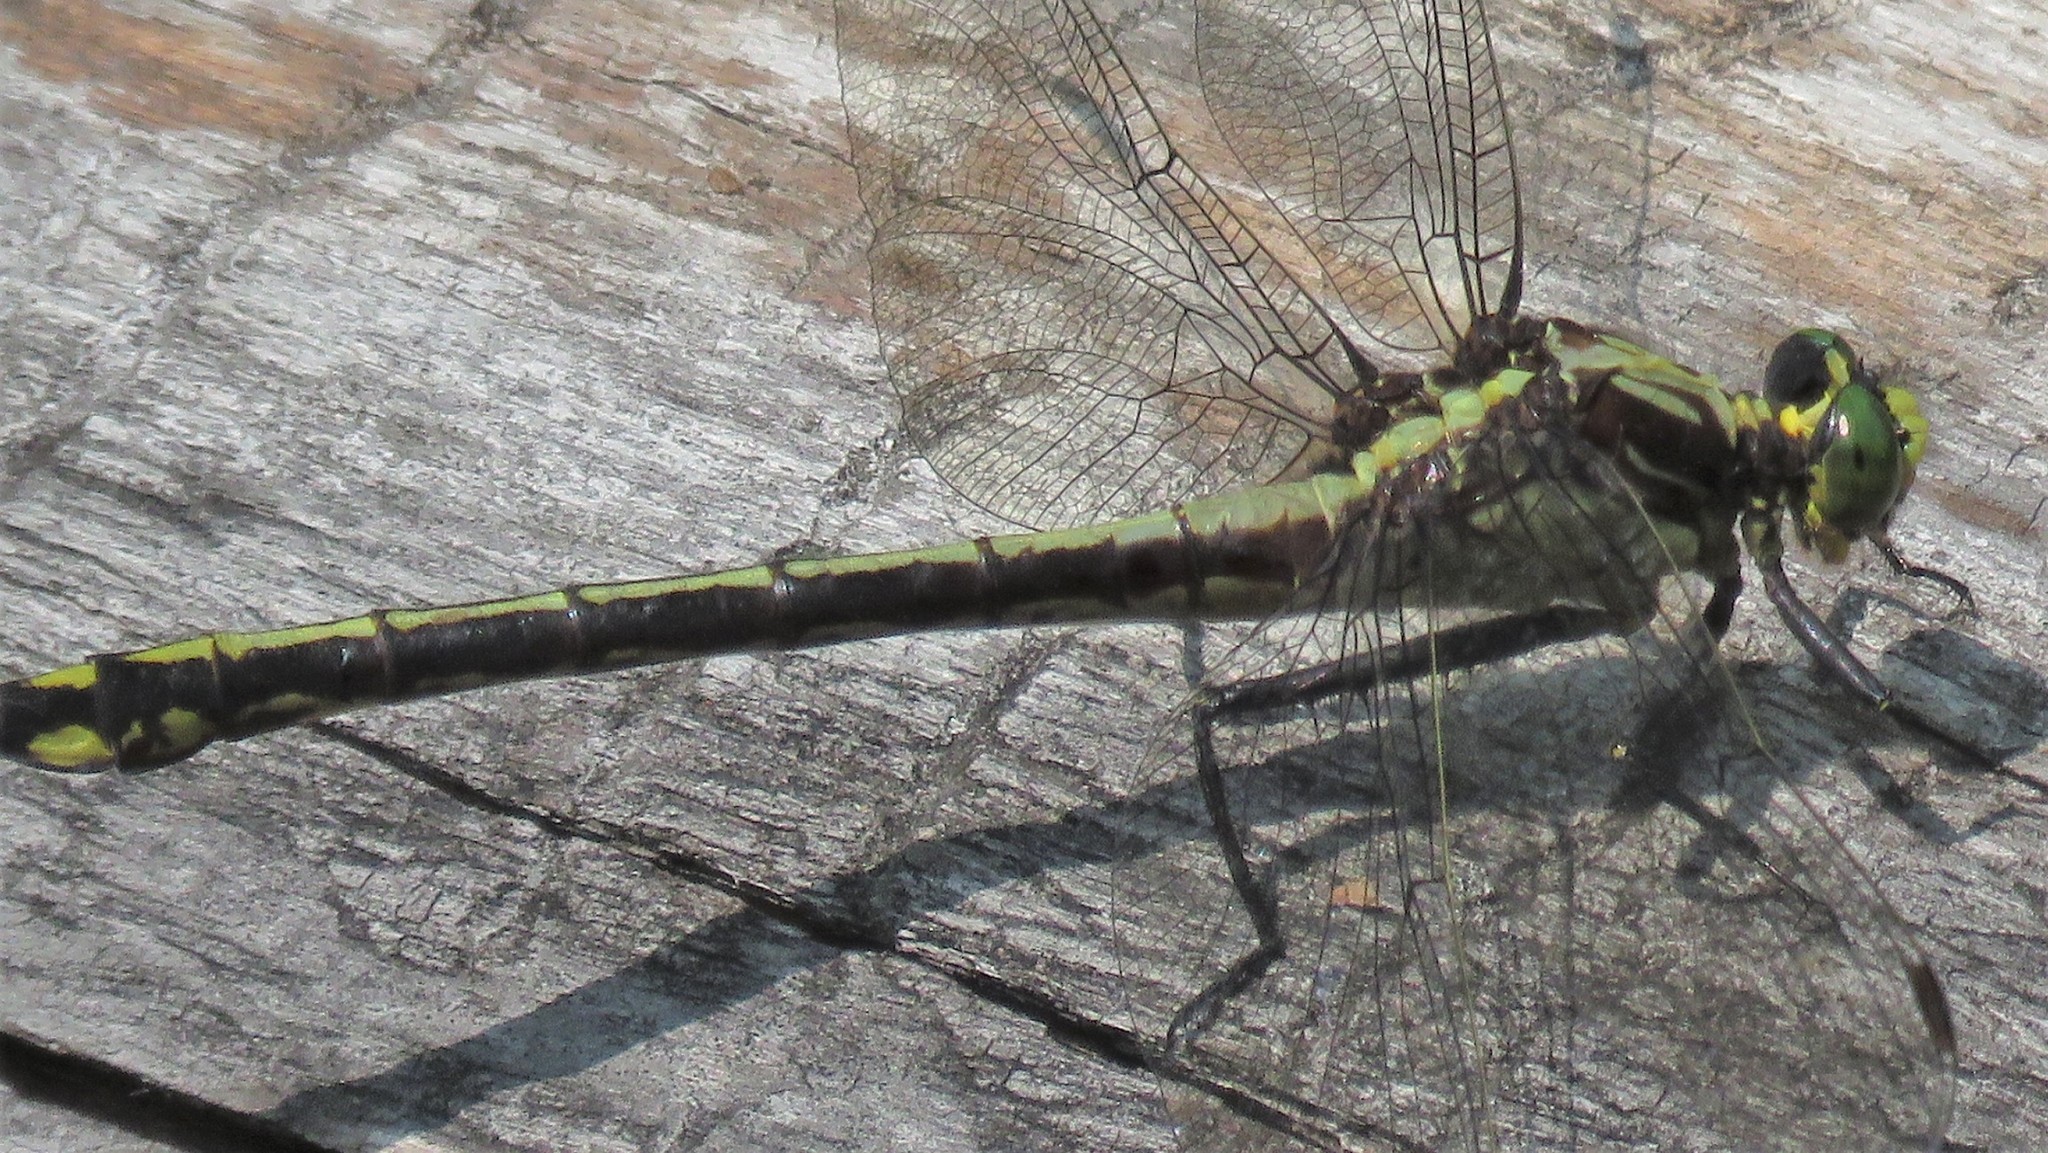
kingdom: Animalia
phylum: Arthropoda
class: Insecta
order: Odonata
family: Gomphidae
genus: Dromogomphus
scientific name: Dromogomphus spinosus
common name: Black-shouldered spinyleg
